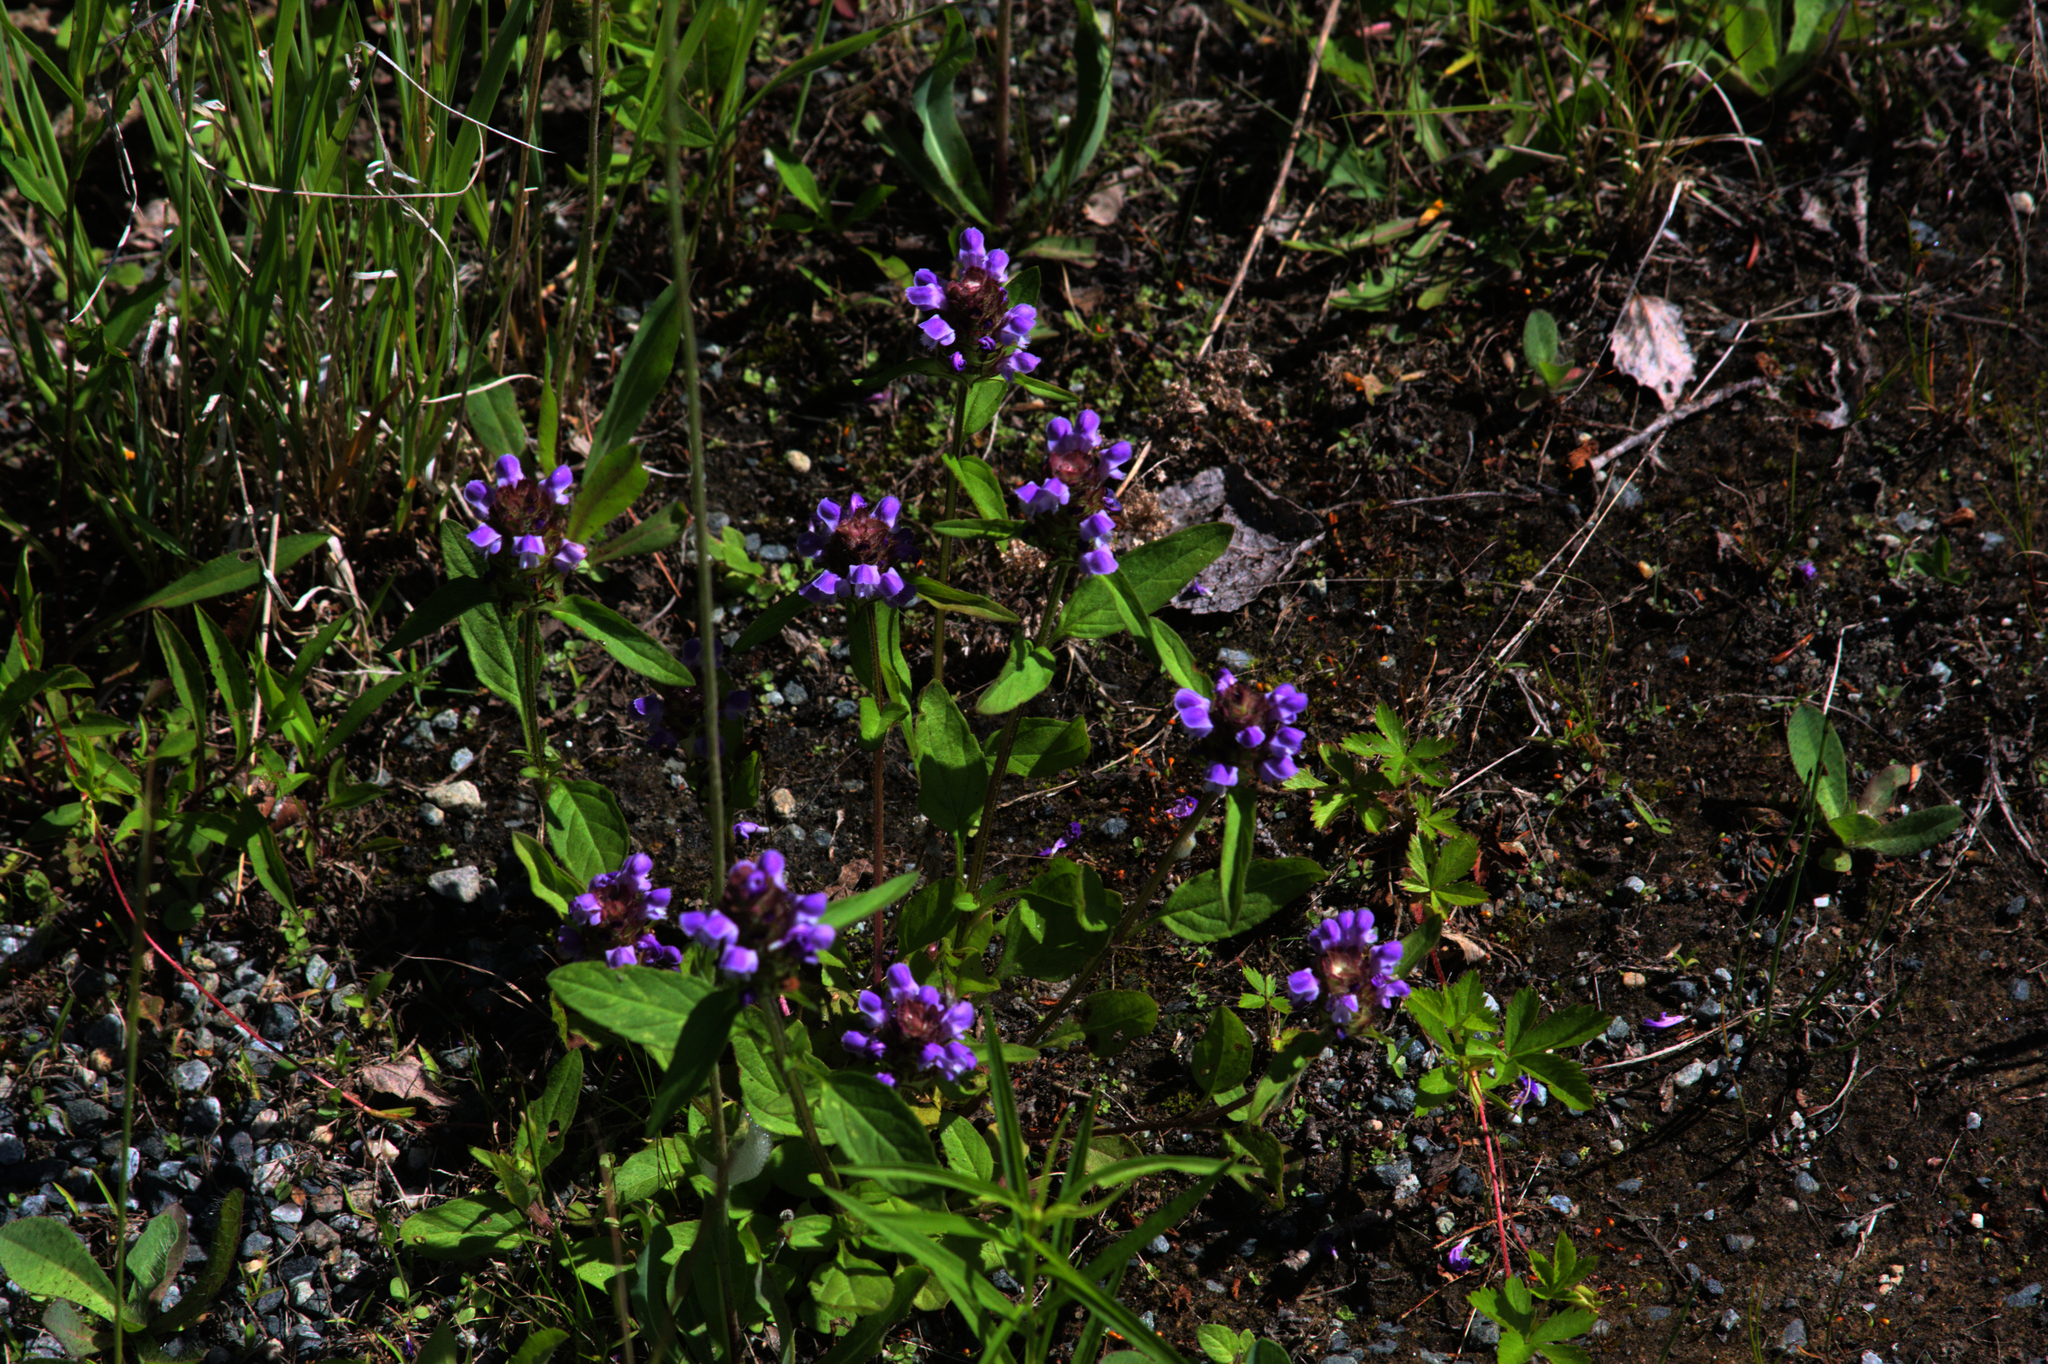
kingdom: Plantae
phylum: Tracheophyta
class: Magnoliopsida
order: Lamiales
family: Lamiaceae
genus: Prunella
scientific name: Prunella vulgaris
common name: Heal-all
